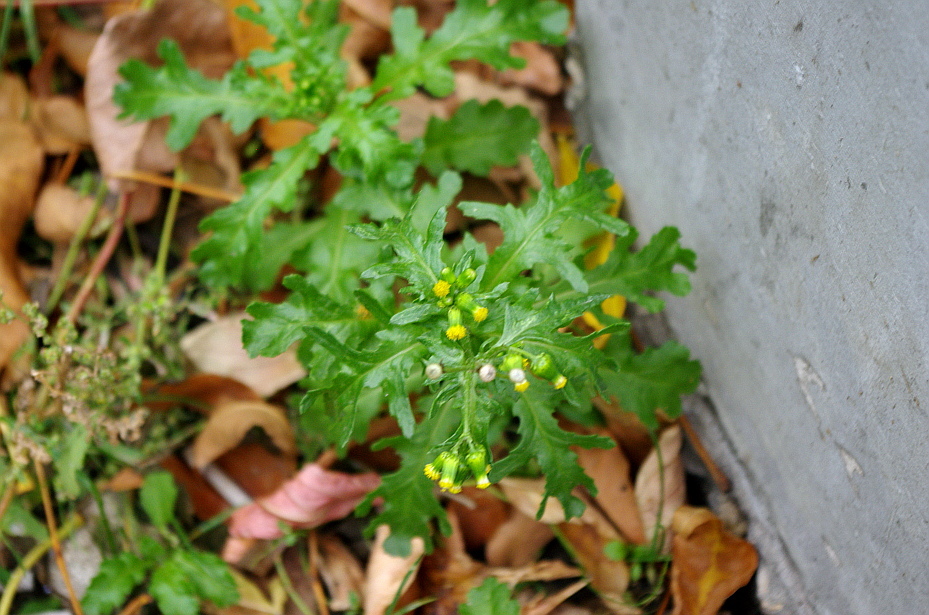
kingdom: Plantae
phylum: Tracheophyta
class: Magnoliopsida
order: Asterales
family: Asteraceae
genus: Senecio
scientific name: Senecio vulgaris
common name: Old-man-in-the-spring
